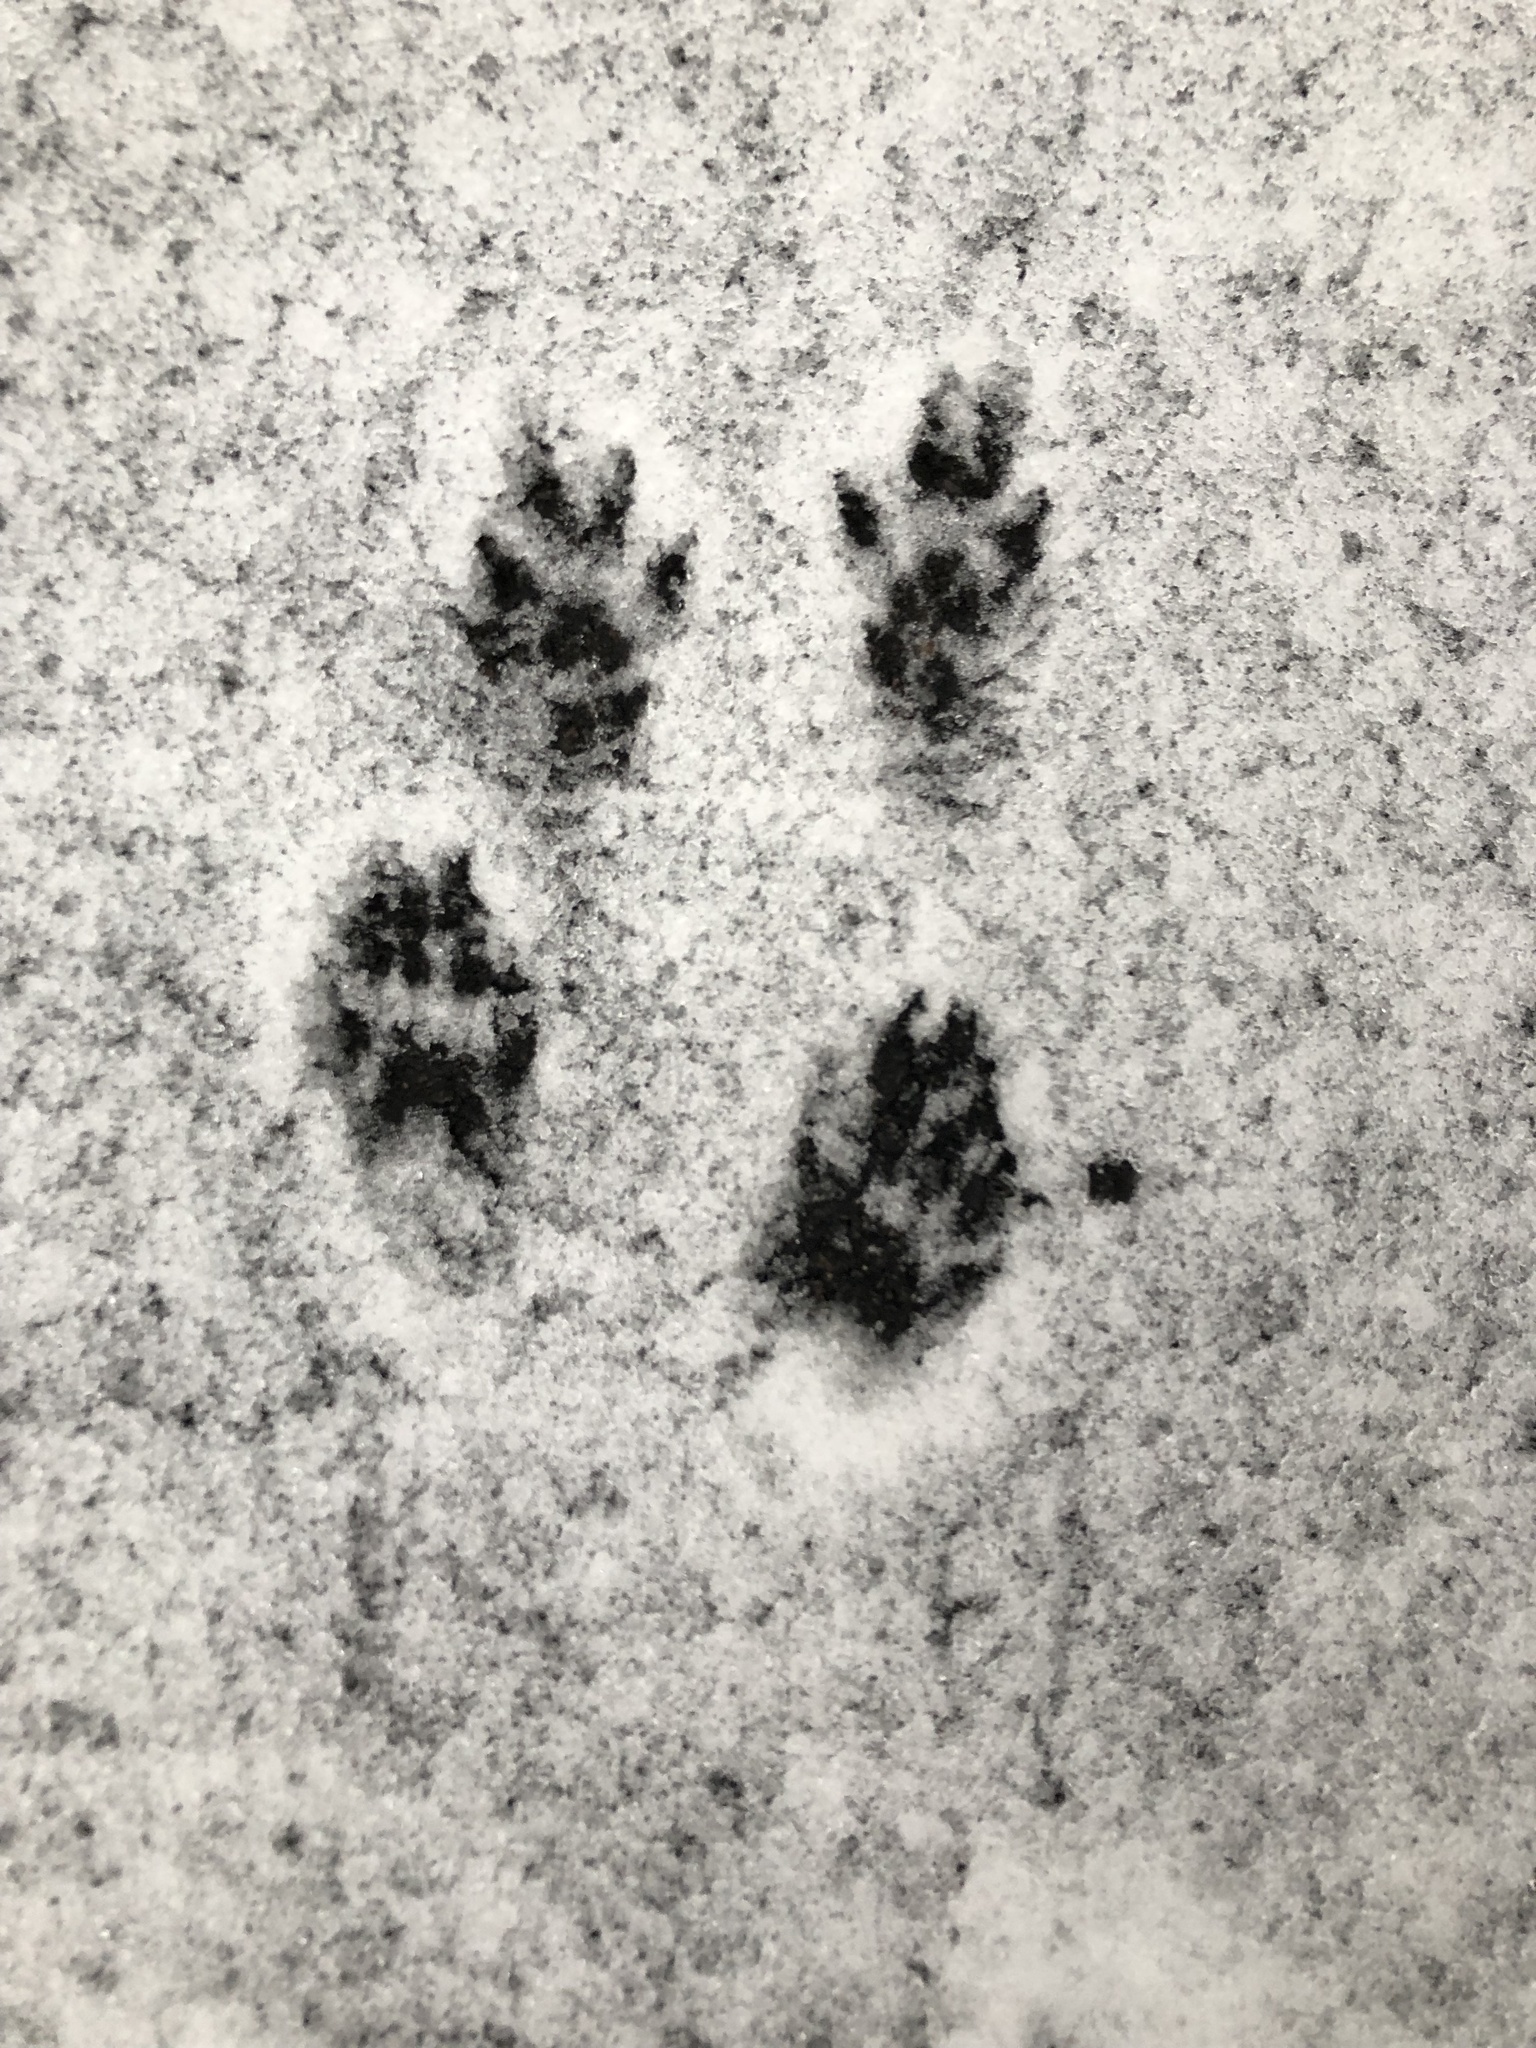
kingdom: Animalia
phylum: Chordata
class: Mammalia
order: Rodentia
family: Sciuridae
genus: Sciurus
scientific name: Sciurus carolinensis
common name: Eastern gray squirrel
